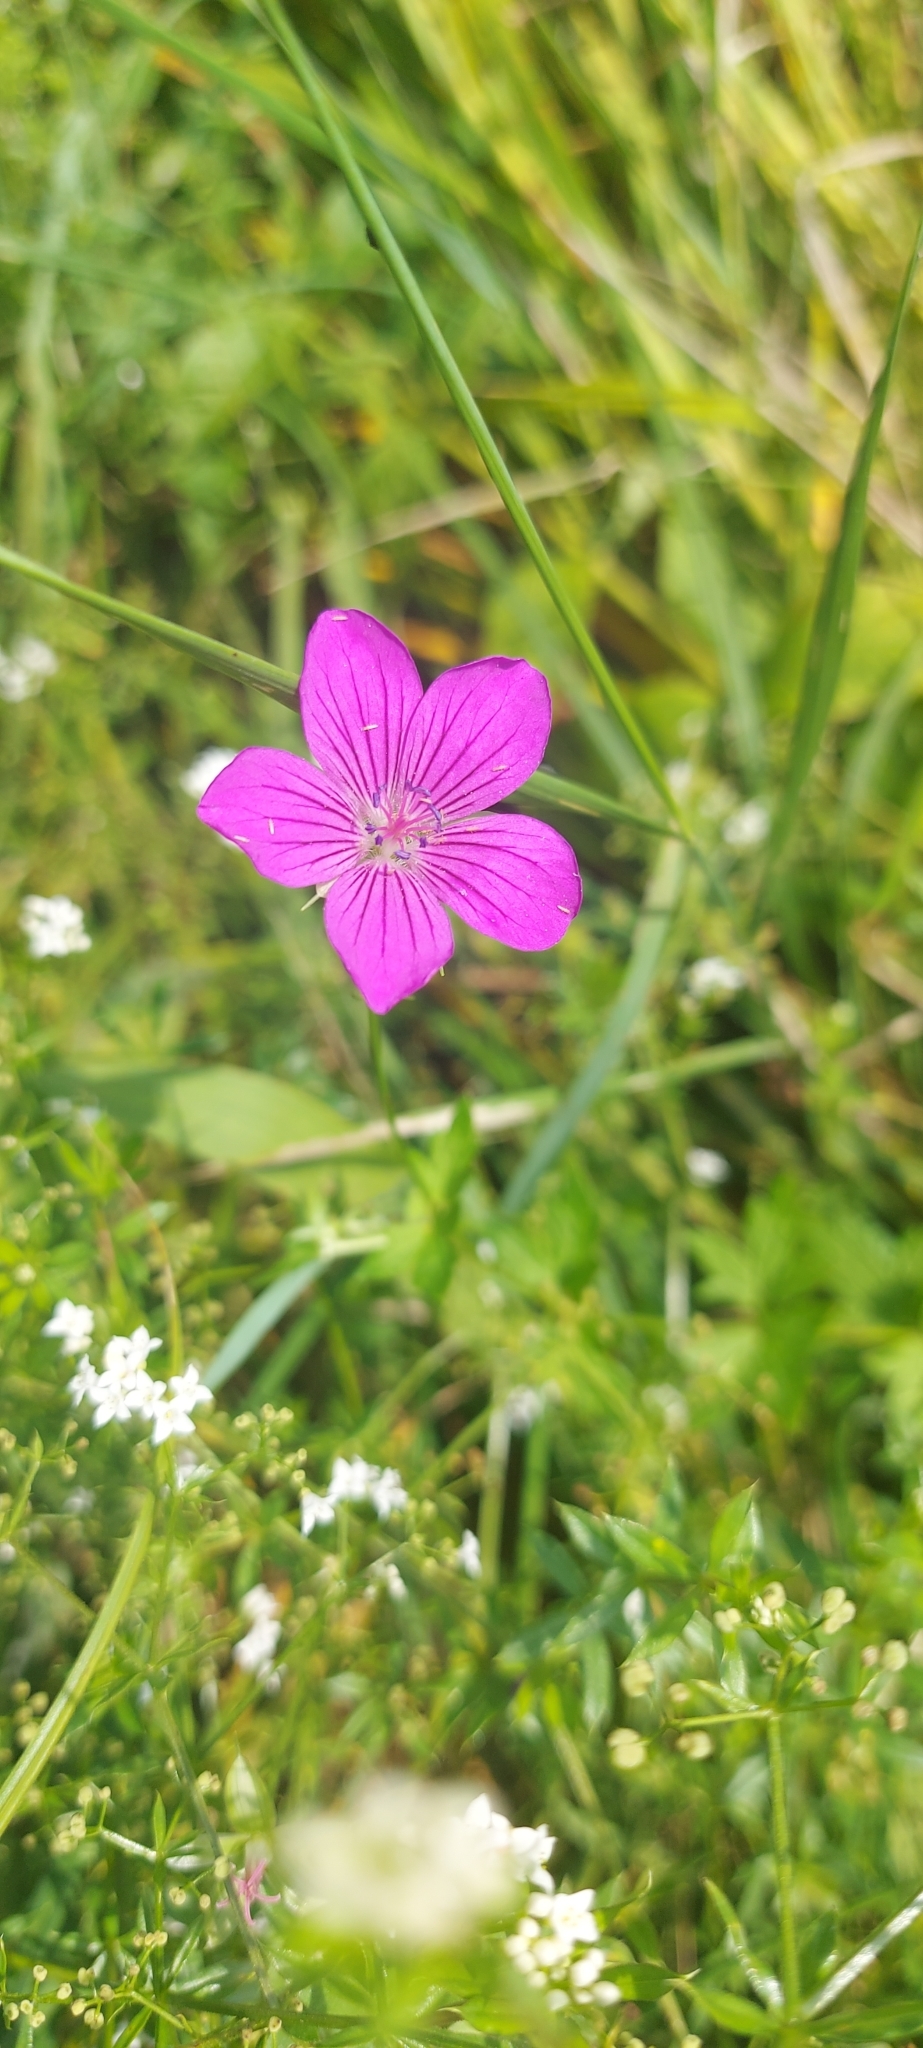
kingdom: Plantae
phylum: Tracheophyta
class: Magnoliopsida
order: Geraniales
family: Geraniaceae
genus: Geranium
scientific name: Geranium palustre
